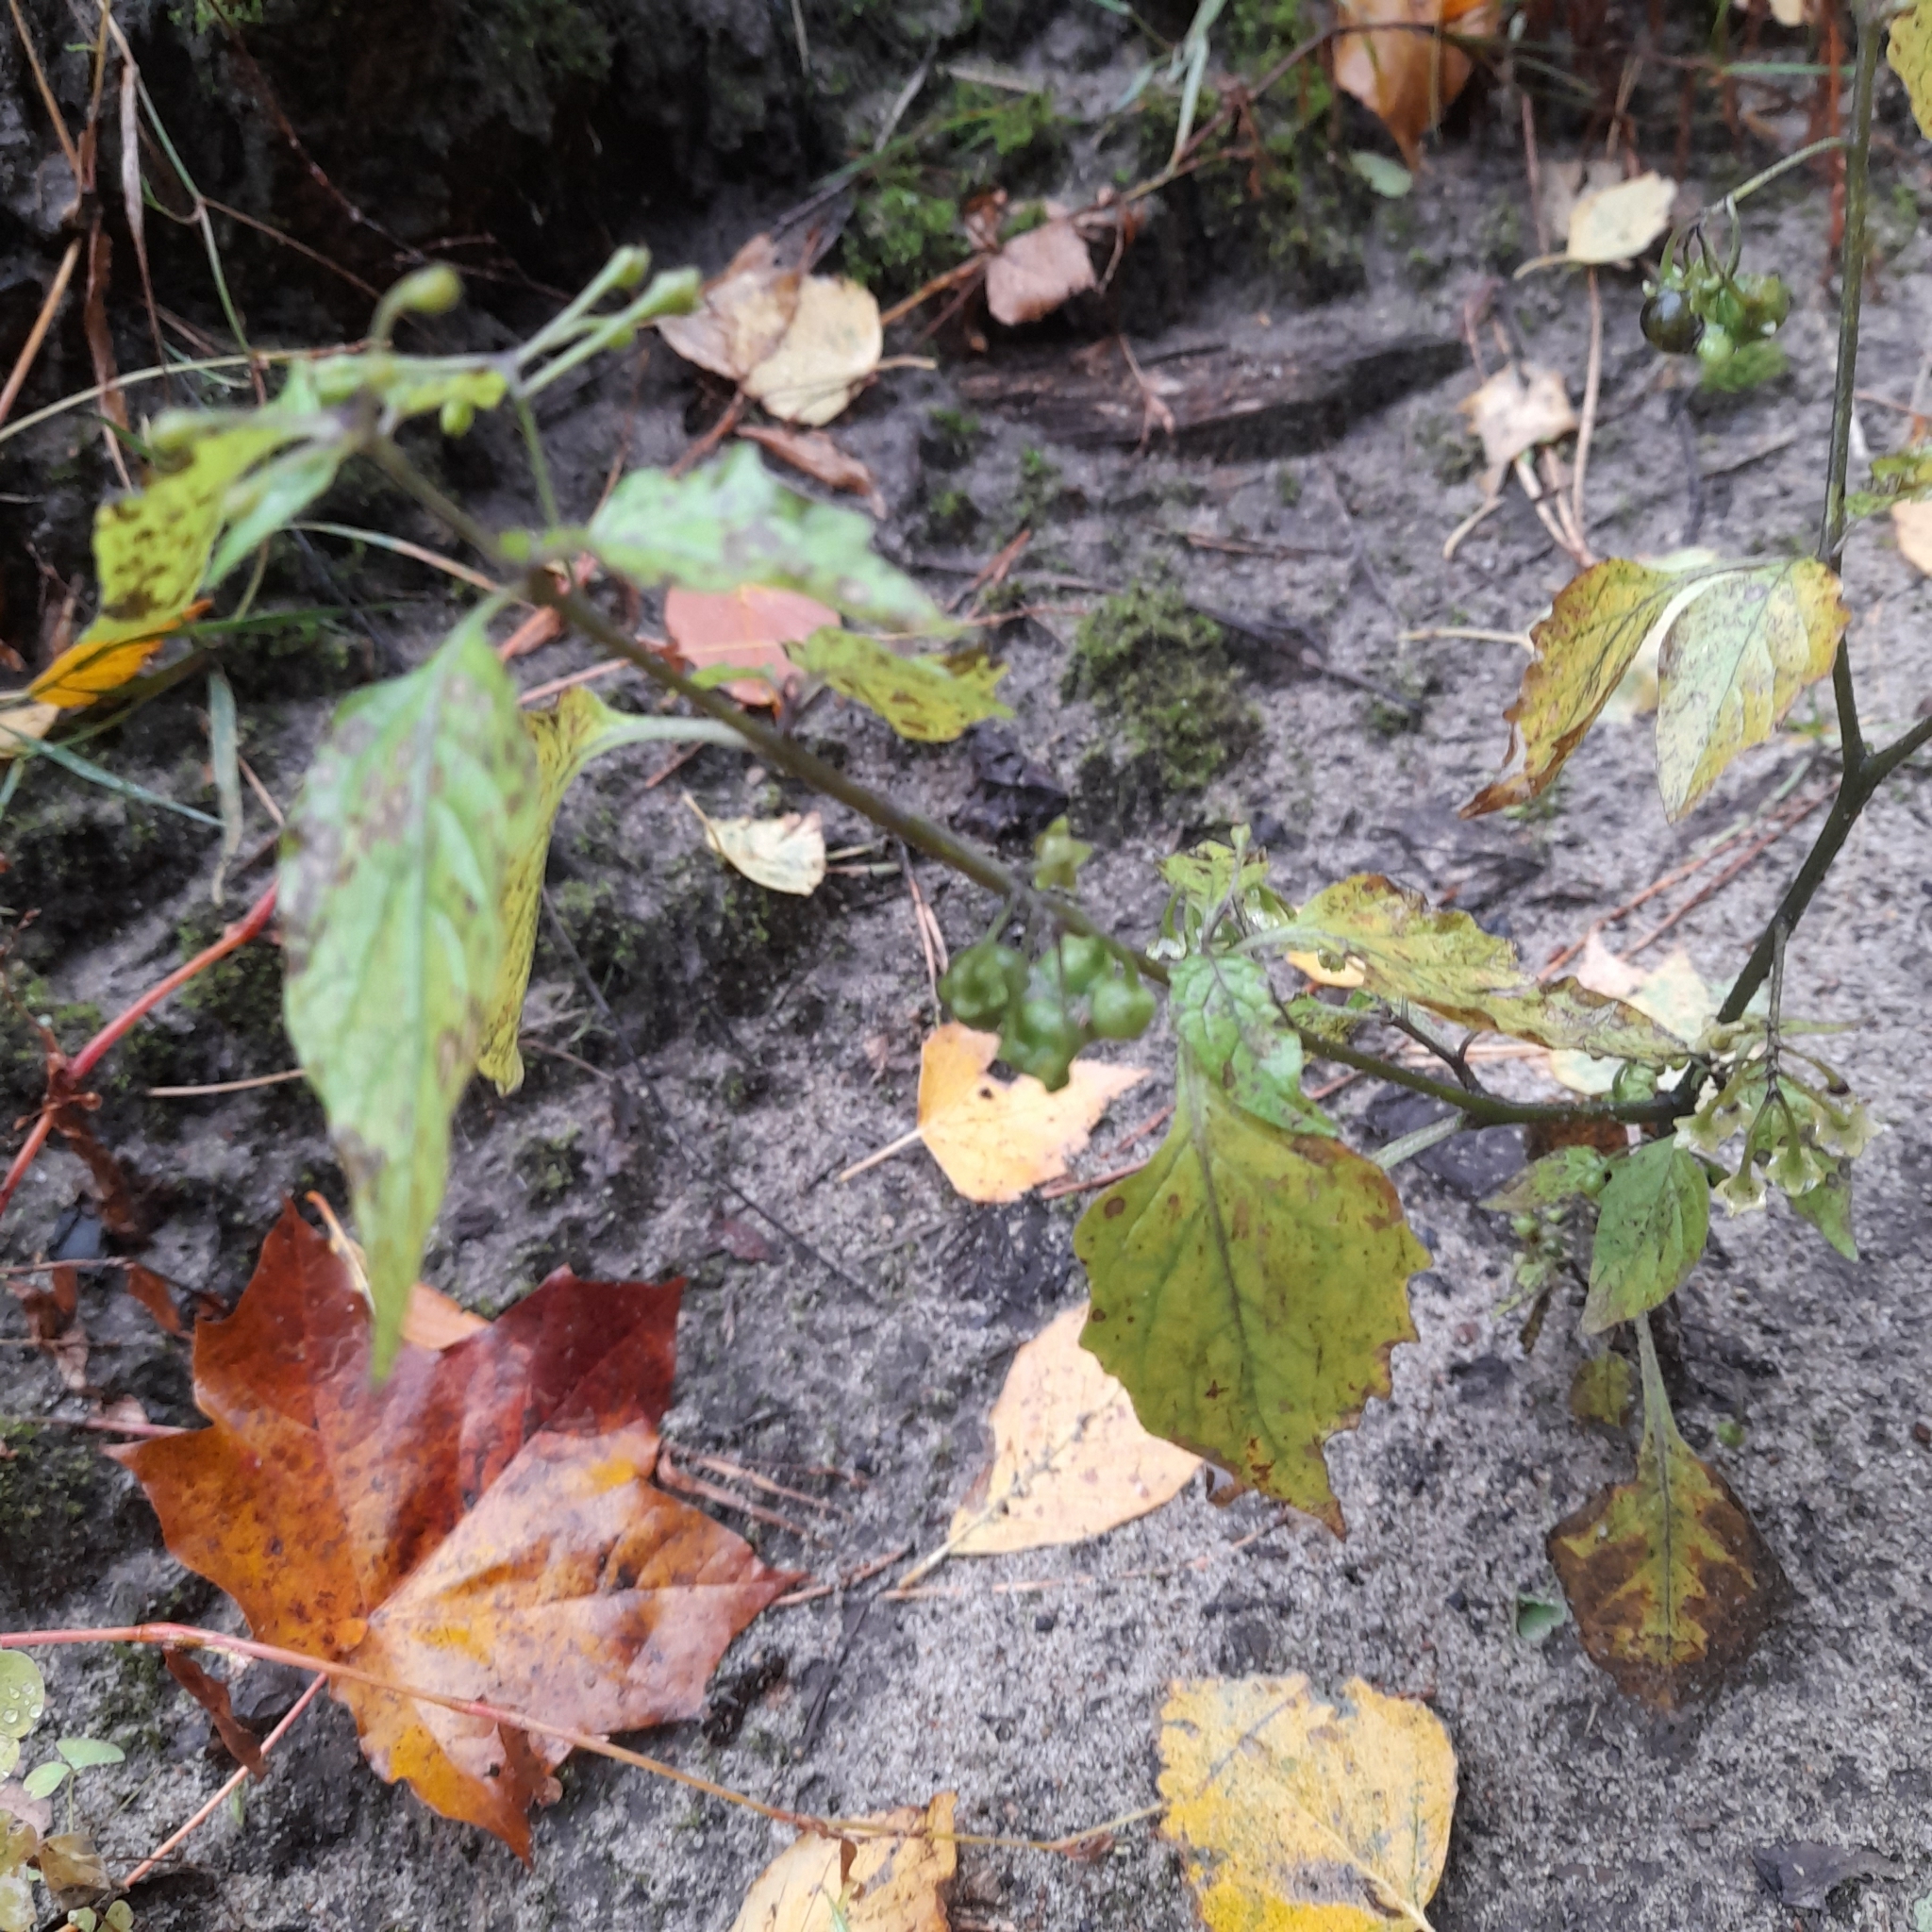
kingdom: Plantae
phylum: Tracheophyta
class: Magnoliopsida
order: Solanales
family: Solanaceae
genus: Solanum
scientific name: Solanum nigrum
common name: Black nightshade
